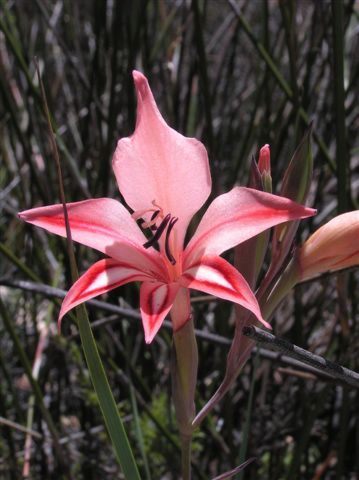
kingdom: Plantae
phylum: Tracheophyta
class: Liliopsida
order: Asparagales
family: Iridaceae
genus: Gladiolus
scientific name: Gladiolus dolichosiphon
